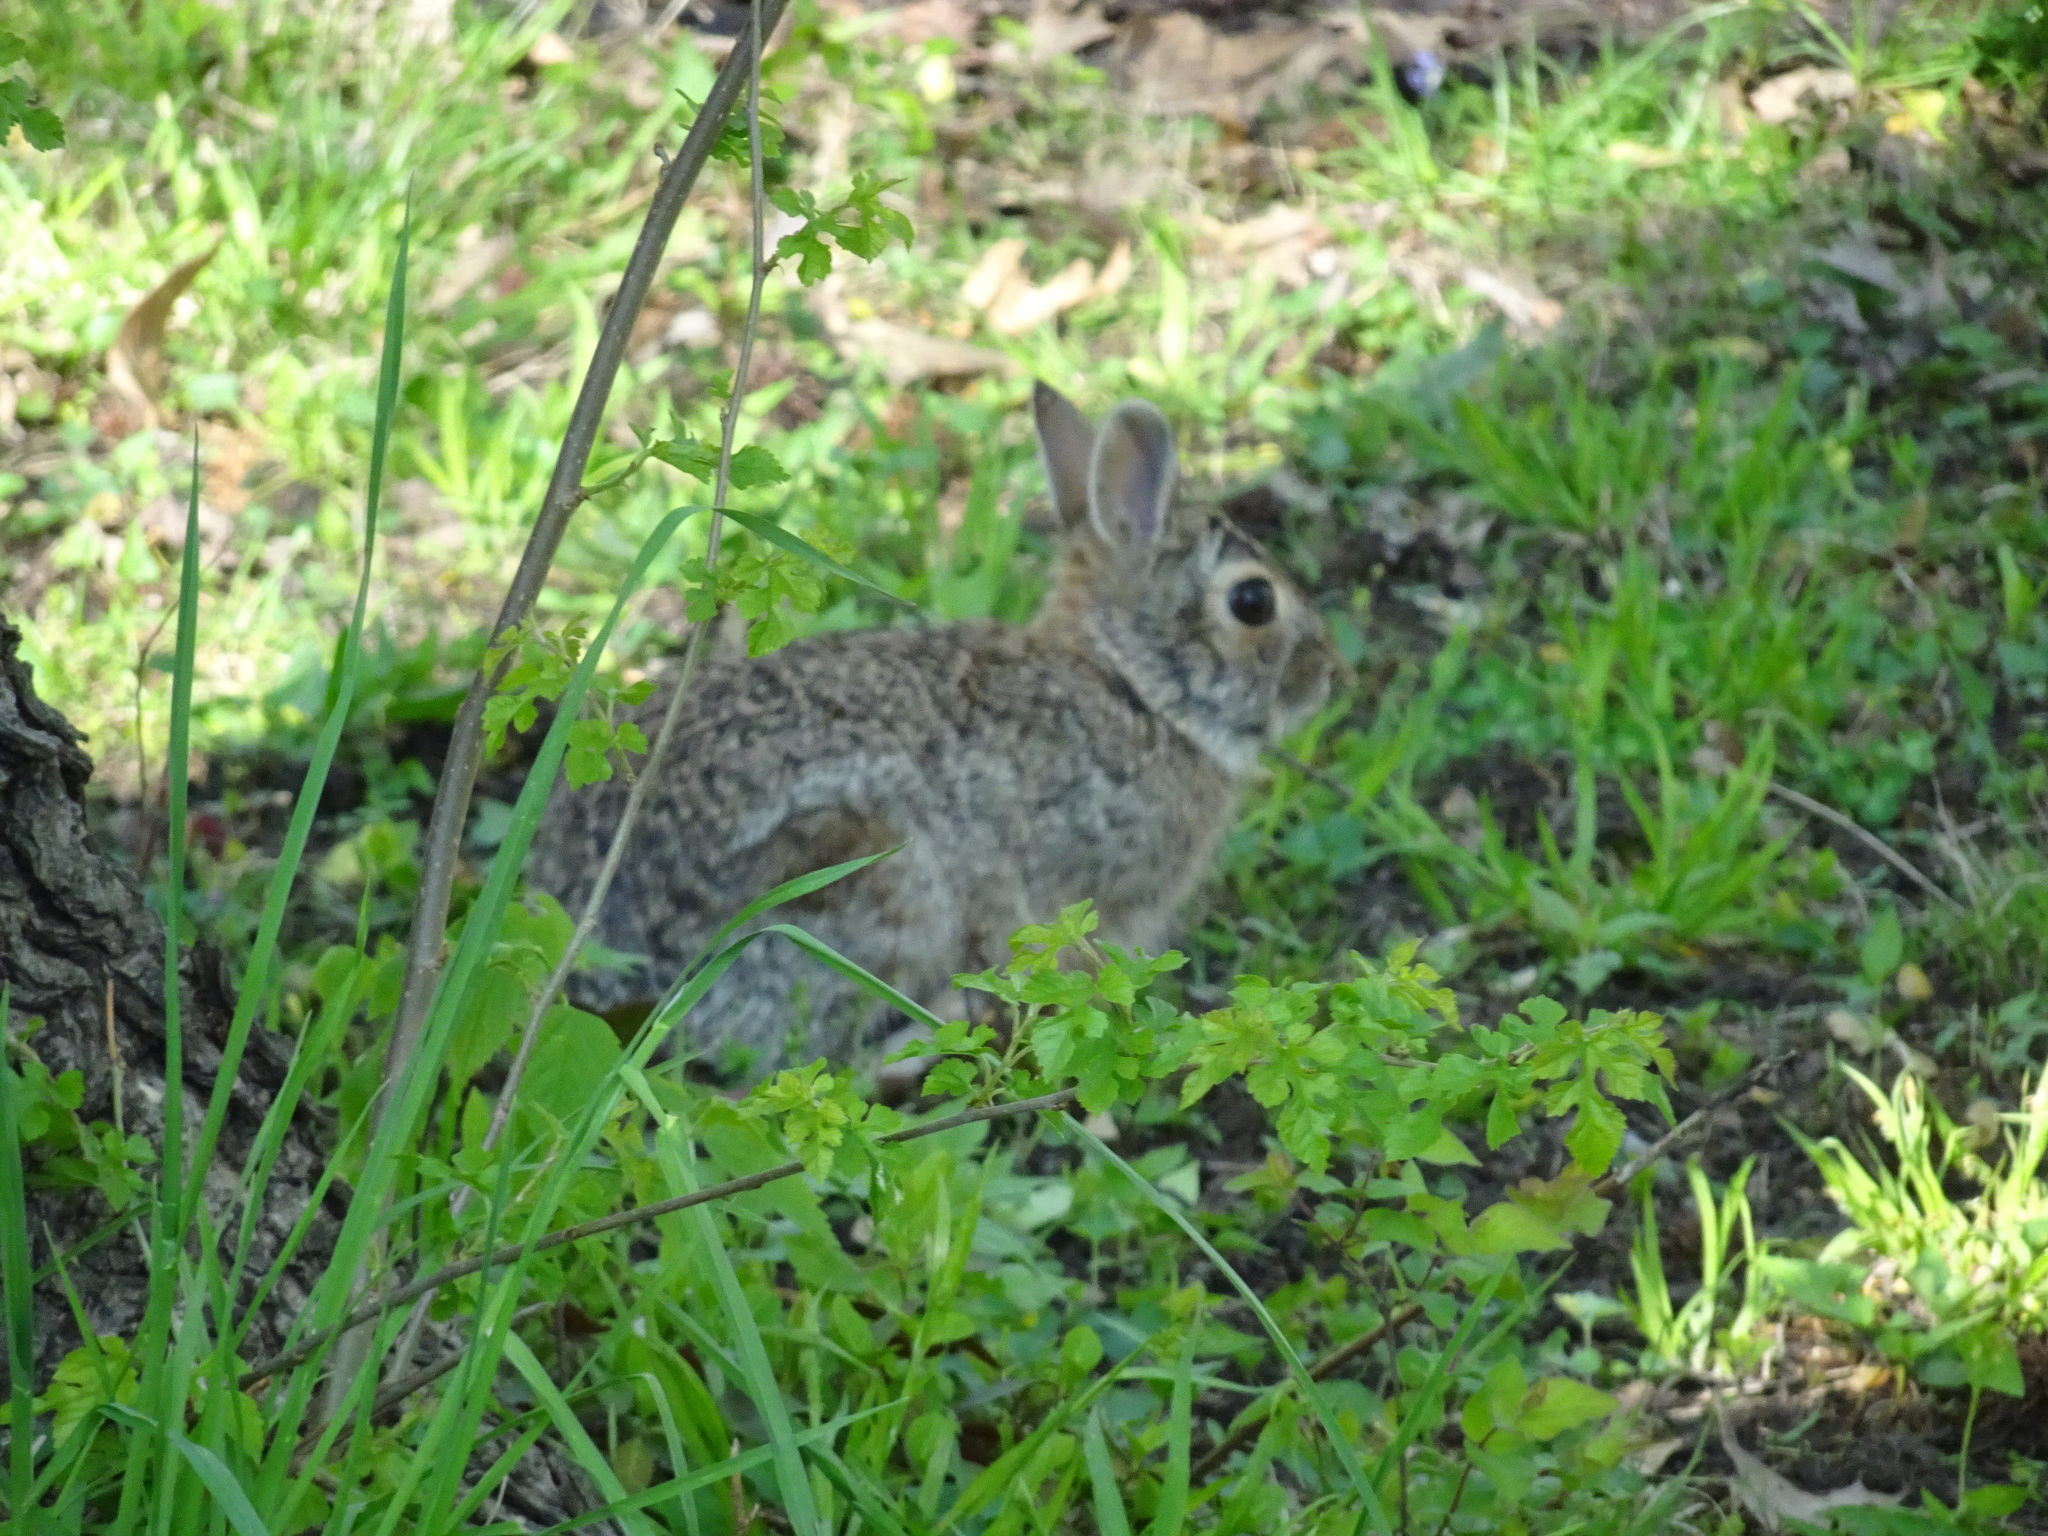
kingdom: Animalia
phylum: Chordata
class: Mammalia
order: Lagomorpha
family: Leporidae
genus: Sylvilagus
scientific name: Sylvilagus floridanus
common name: Eastern cottontail
